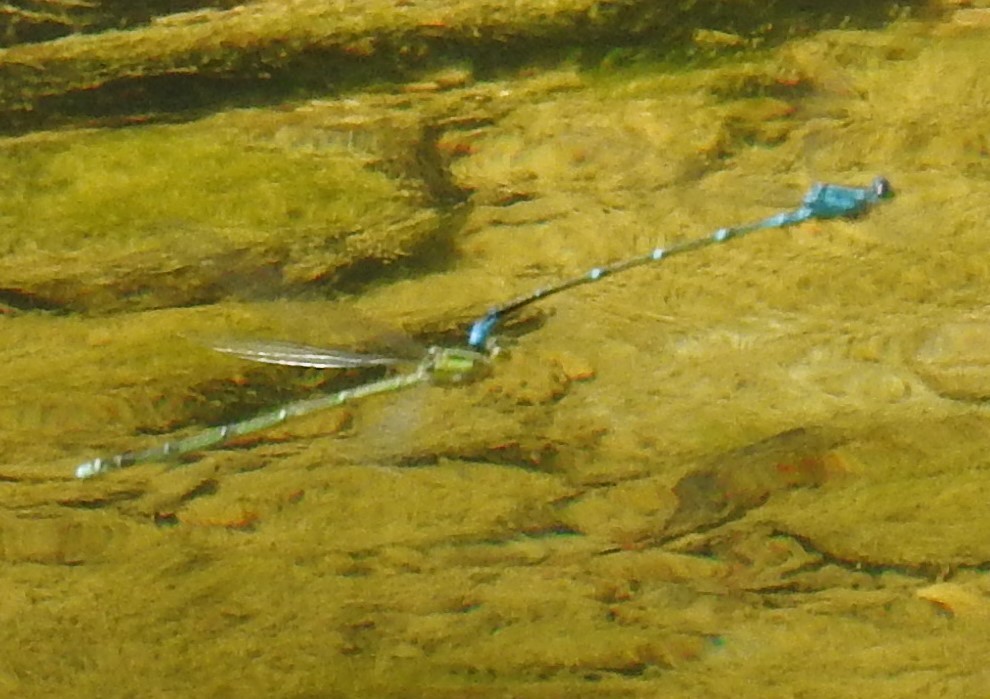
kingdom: Animalia
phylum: Arthropoda
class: Insecta
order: Odonata
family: Coenagrionidae
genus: Enallagma
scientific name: Enallagma exsulans
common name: Stream bluet
